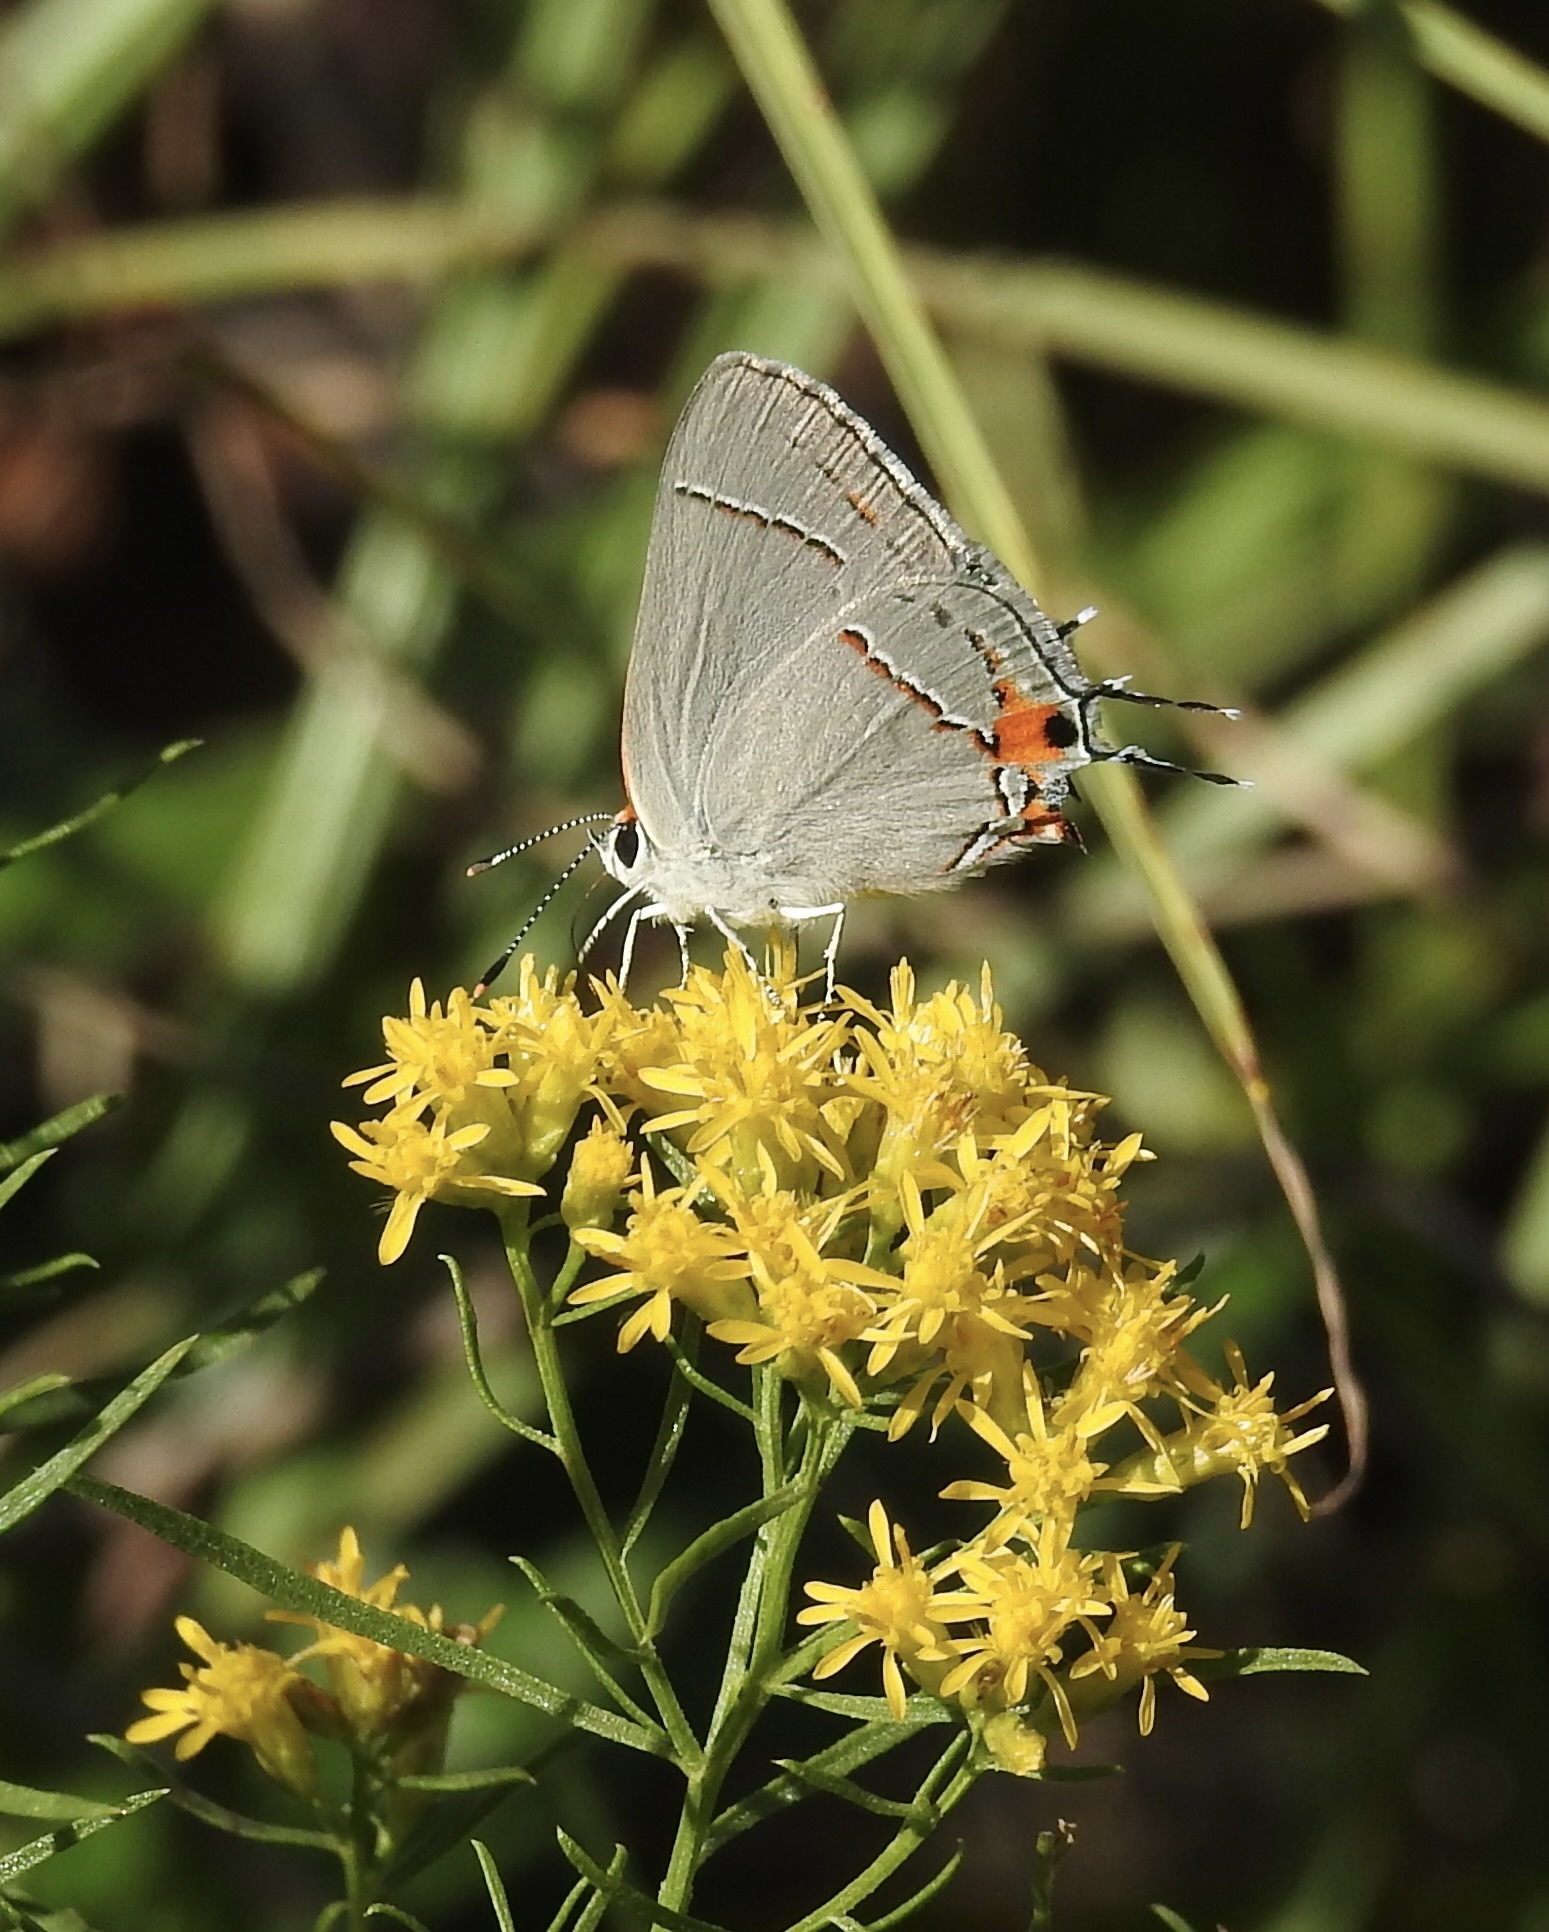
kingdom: Animalia
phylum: Arthropoda
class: Insecta
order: Lepidoptera
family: Lycaenidae
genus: Strymon
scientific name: Strymon melinus
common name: Gray hairstreak
